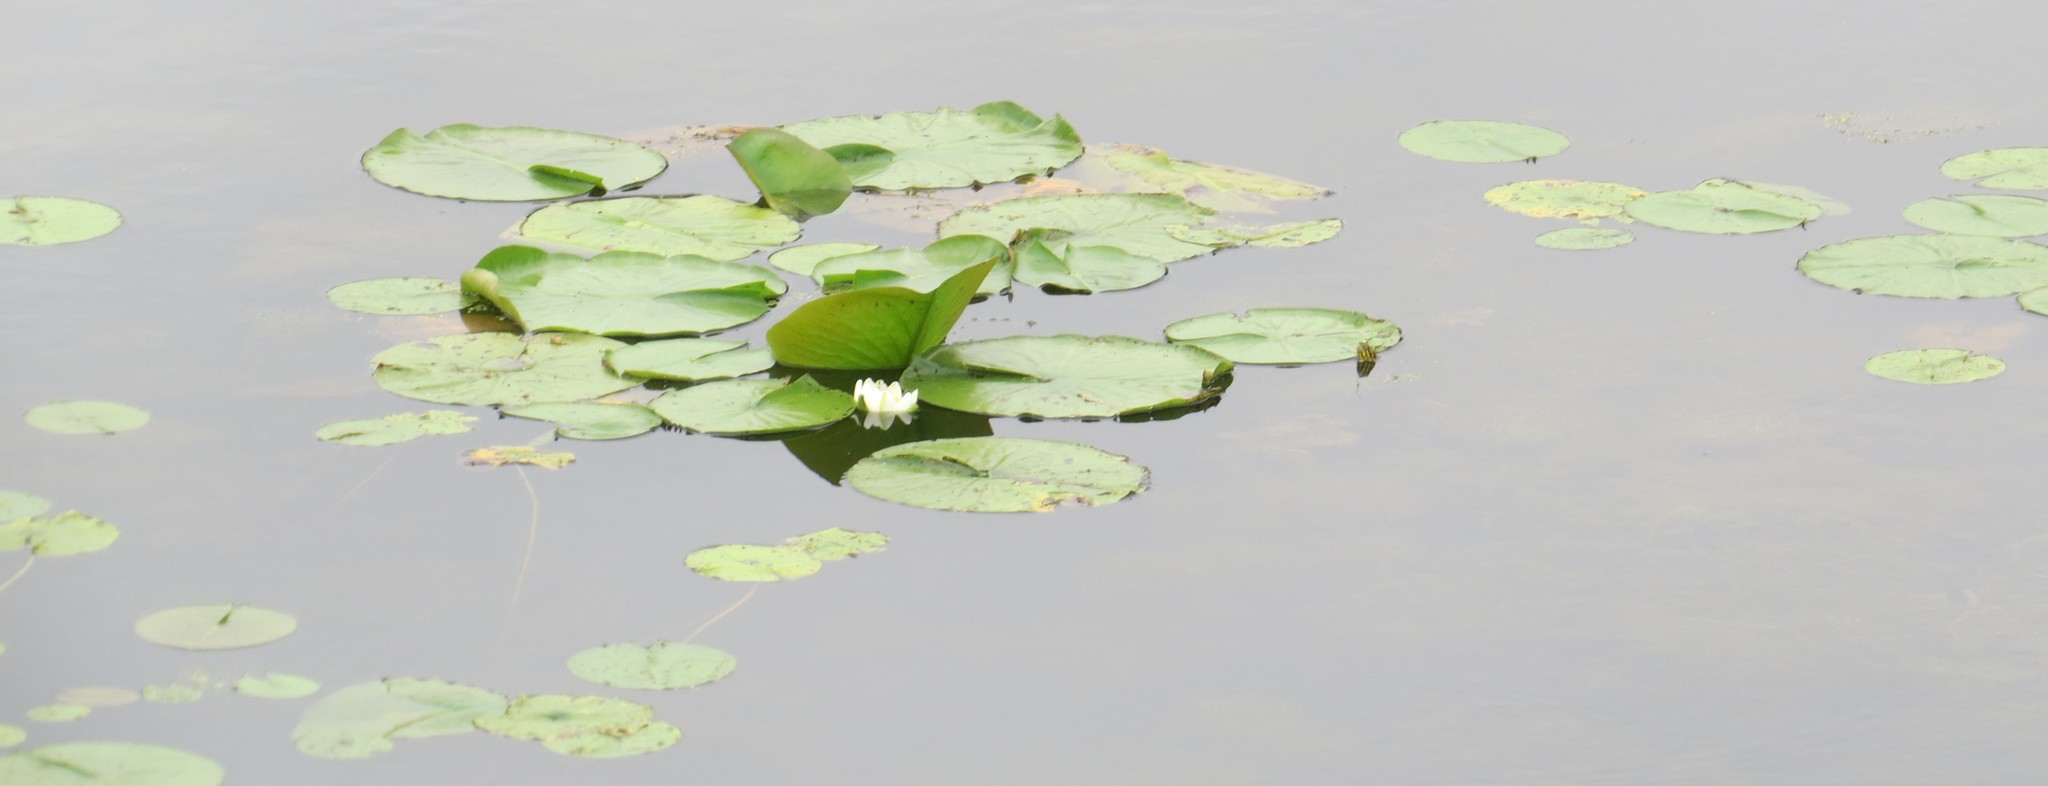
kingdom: Plantae
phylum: Tracheophyta
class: Magnoliopsida
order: Nymphaeales
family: Nymphaeaceae
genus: Nymphaea
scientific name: Nymphaea odorata
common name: Fragrant water-lily
